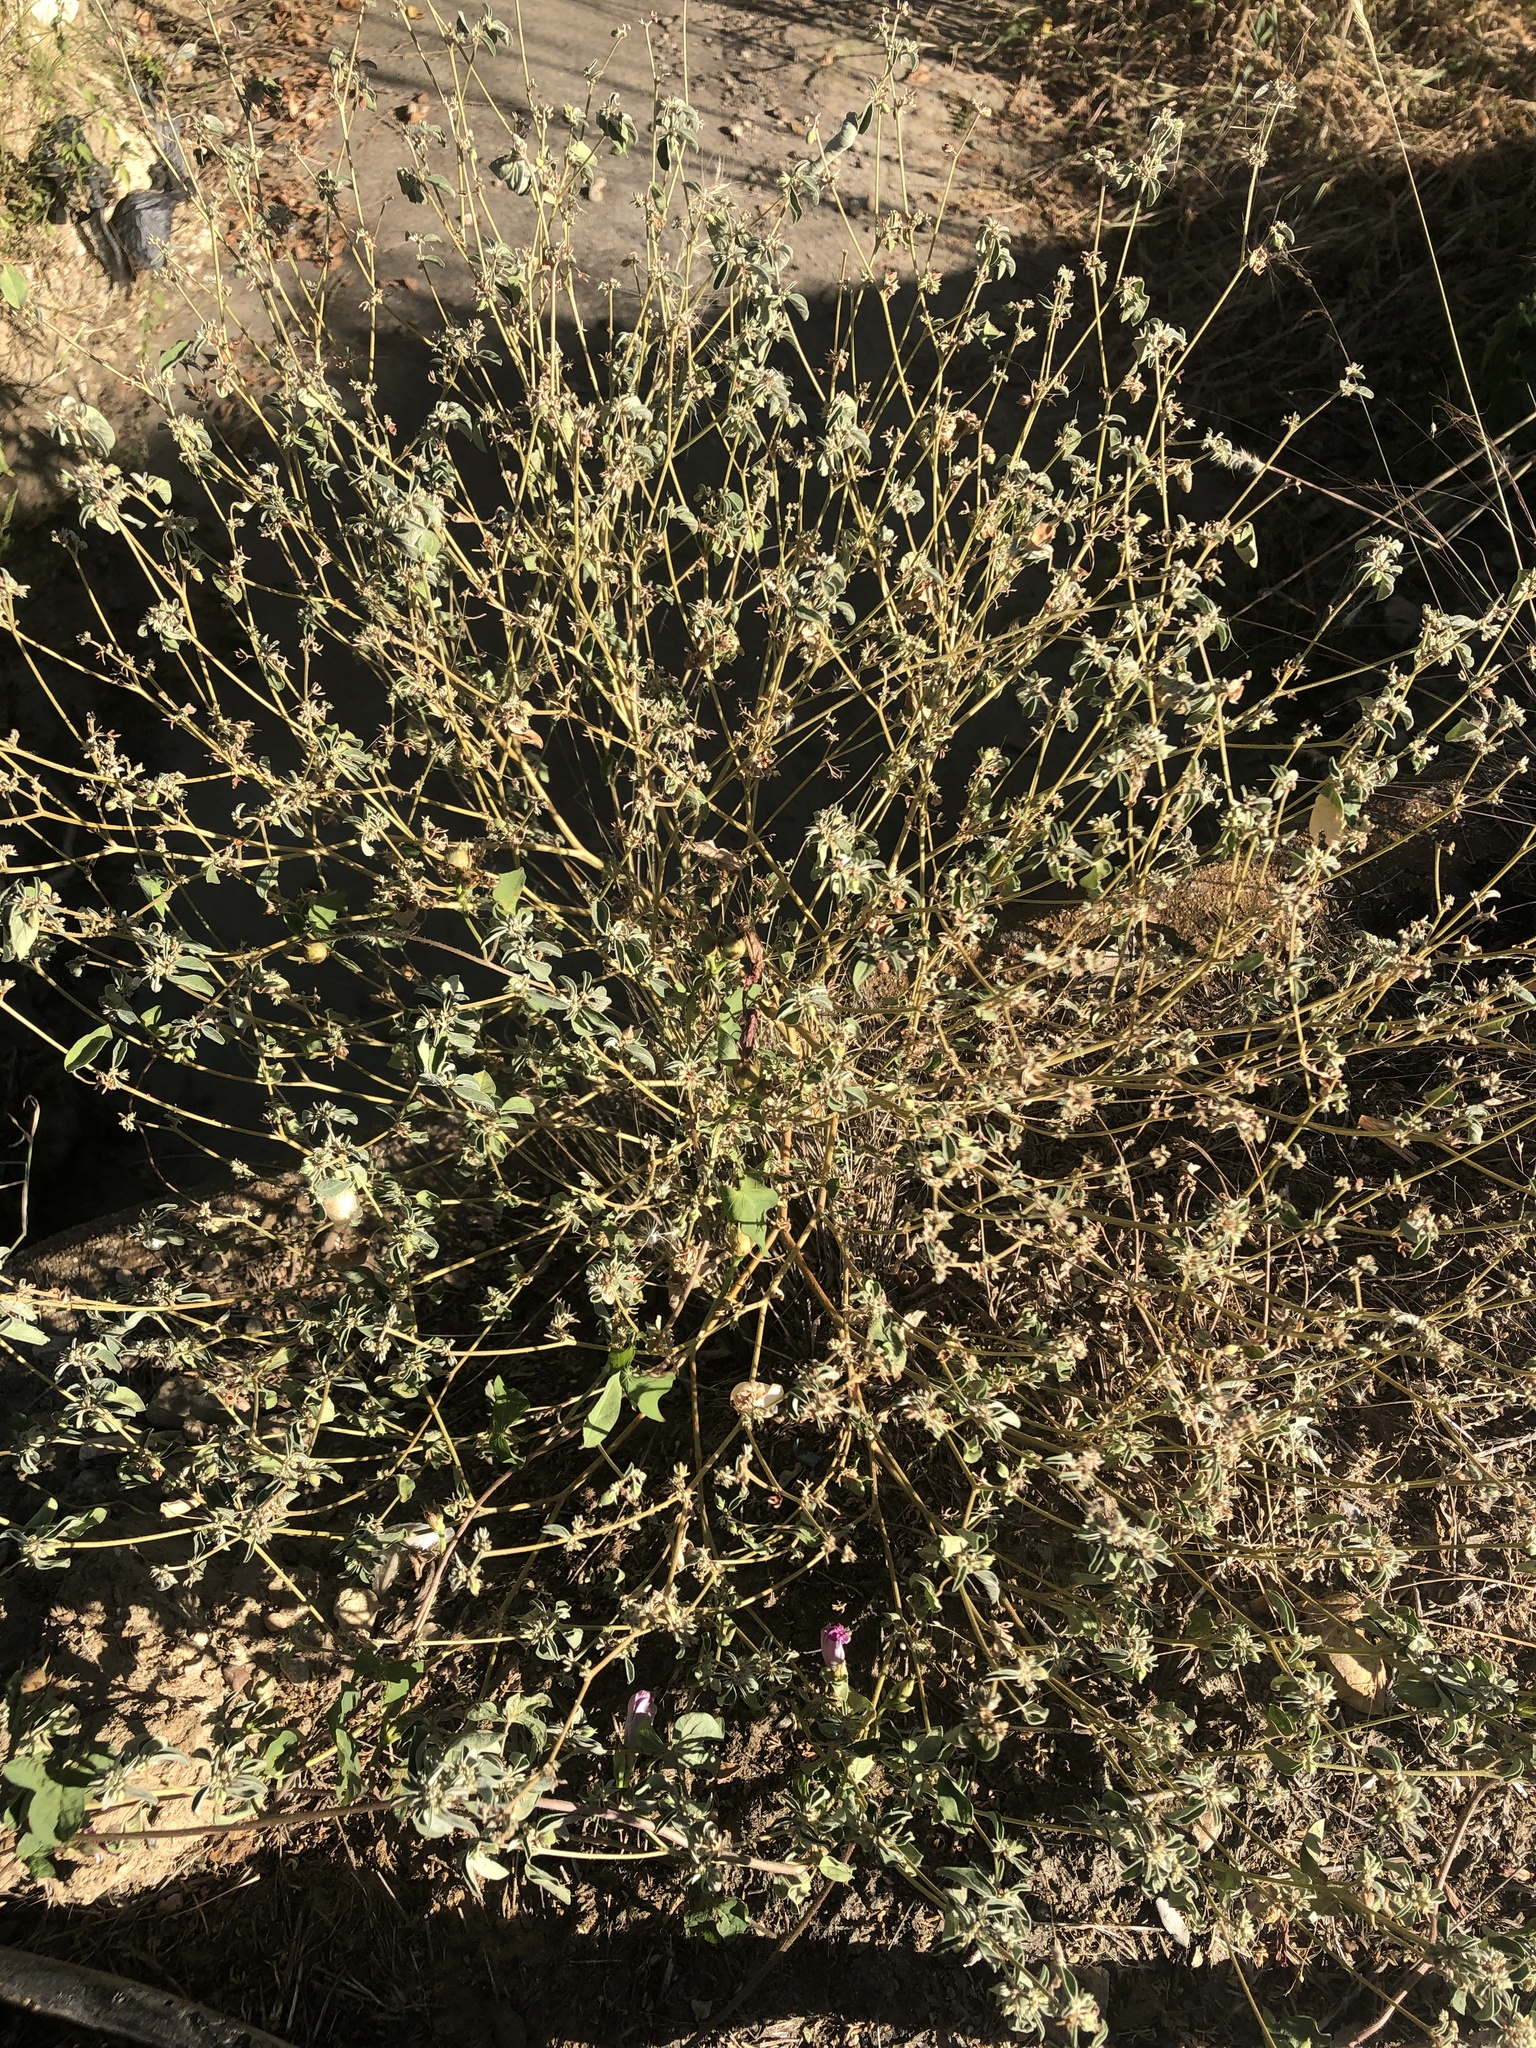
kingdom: Plantae
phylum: Tracheophyta
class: Magnoliopsida
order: Malpighiales
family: Euphorbiaceae
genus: Croton
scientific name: Croton monanthogynus
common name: One-seed croton
